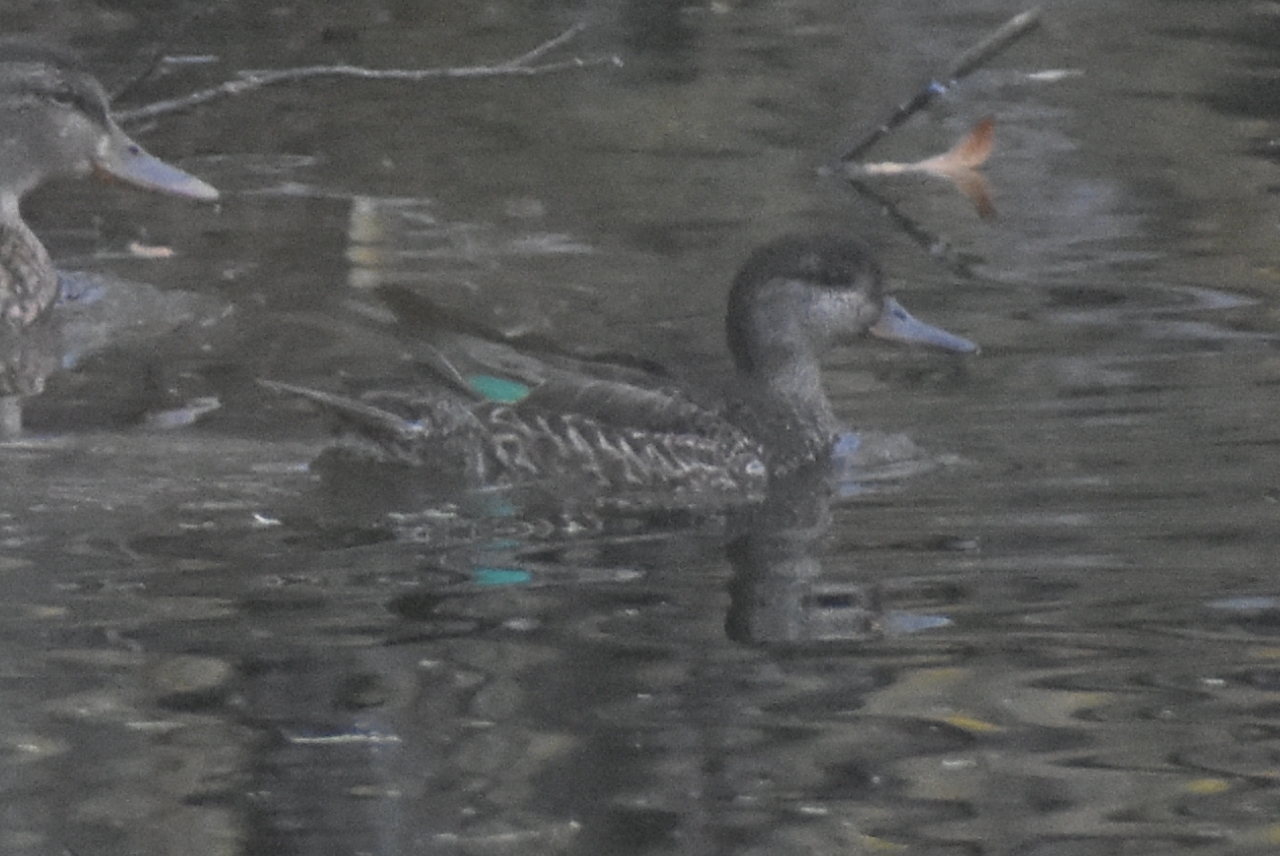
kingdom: Animalia
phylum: Chordata
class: Aves
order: Anseriformes
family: Anatidae
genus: Anas
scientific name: Anas crecca
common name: Eurasian teal
